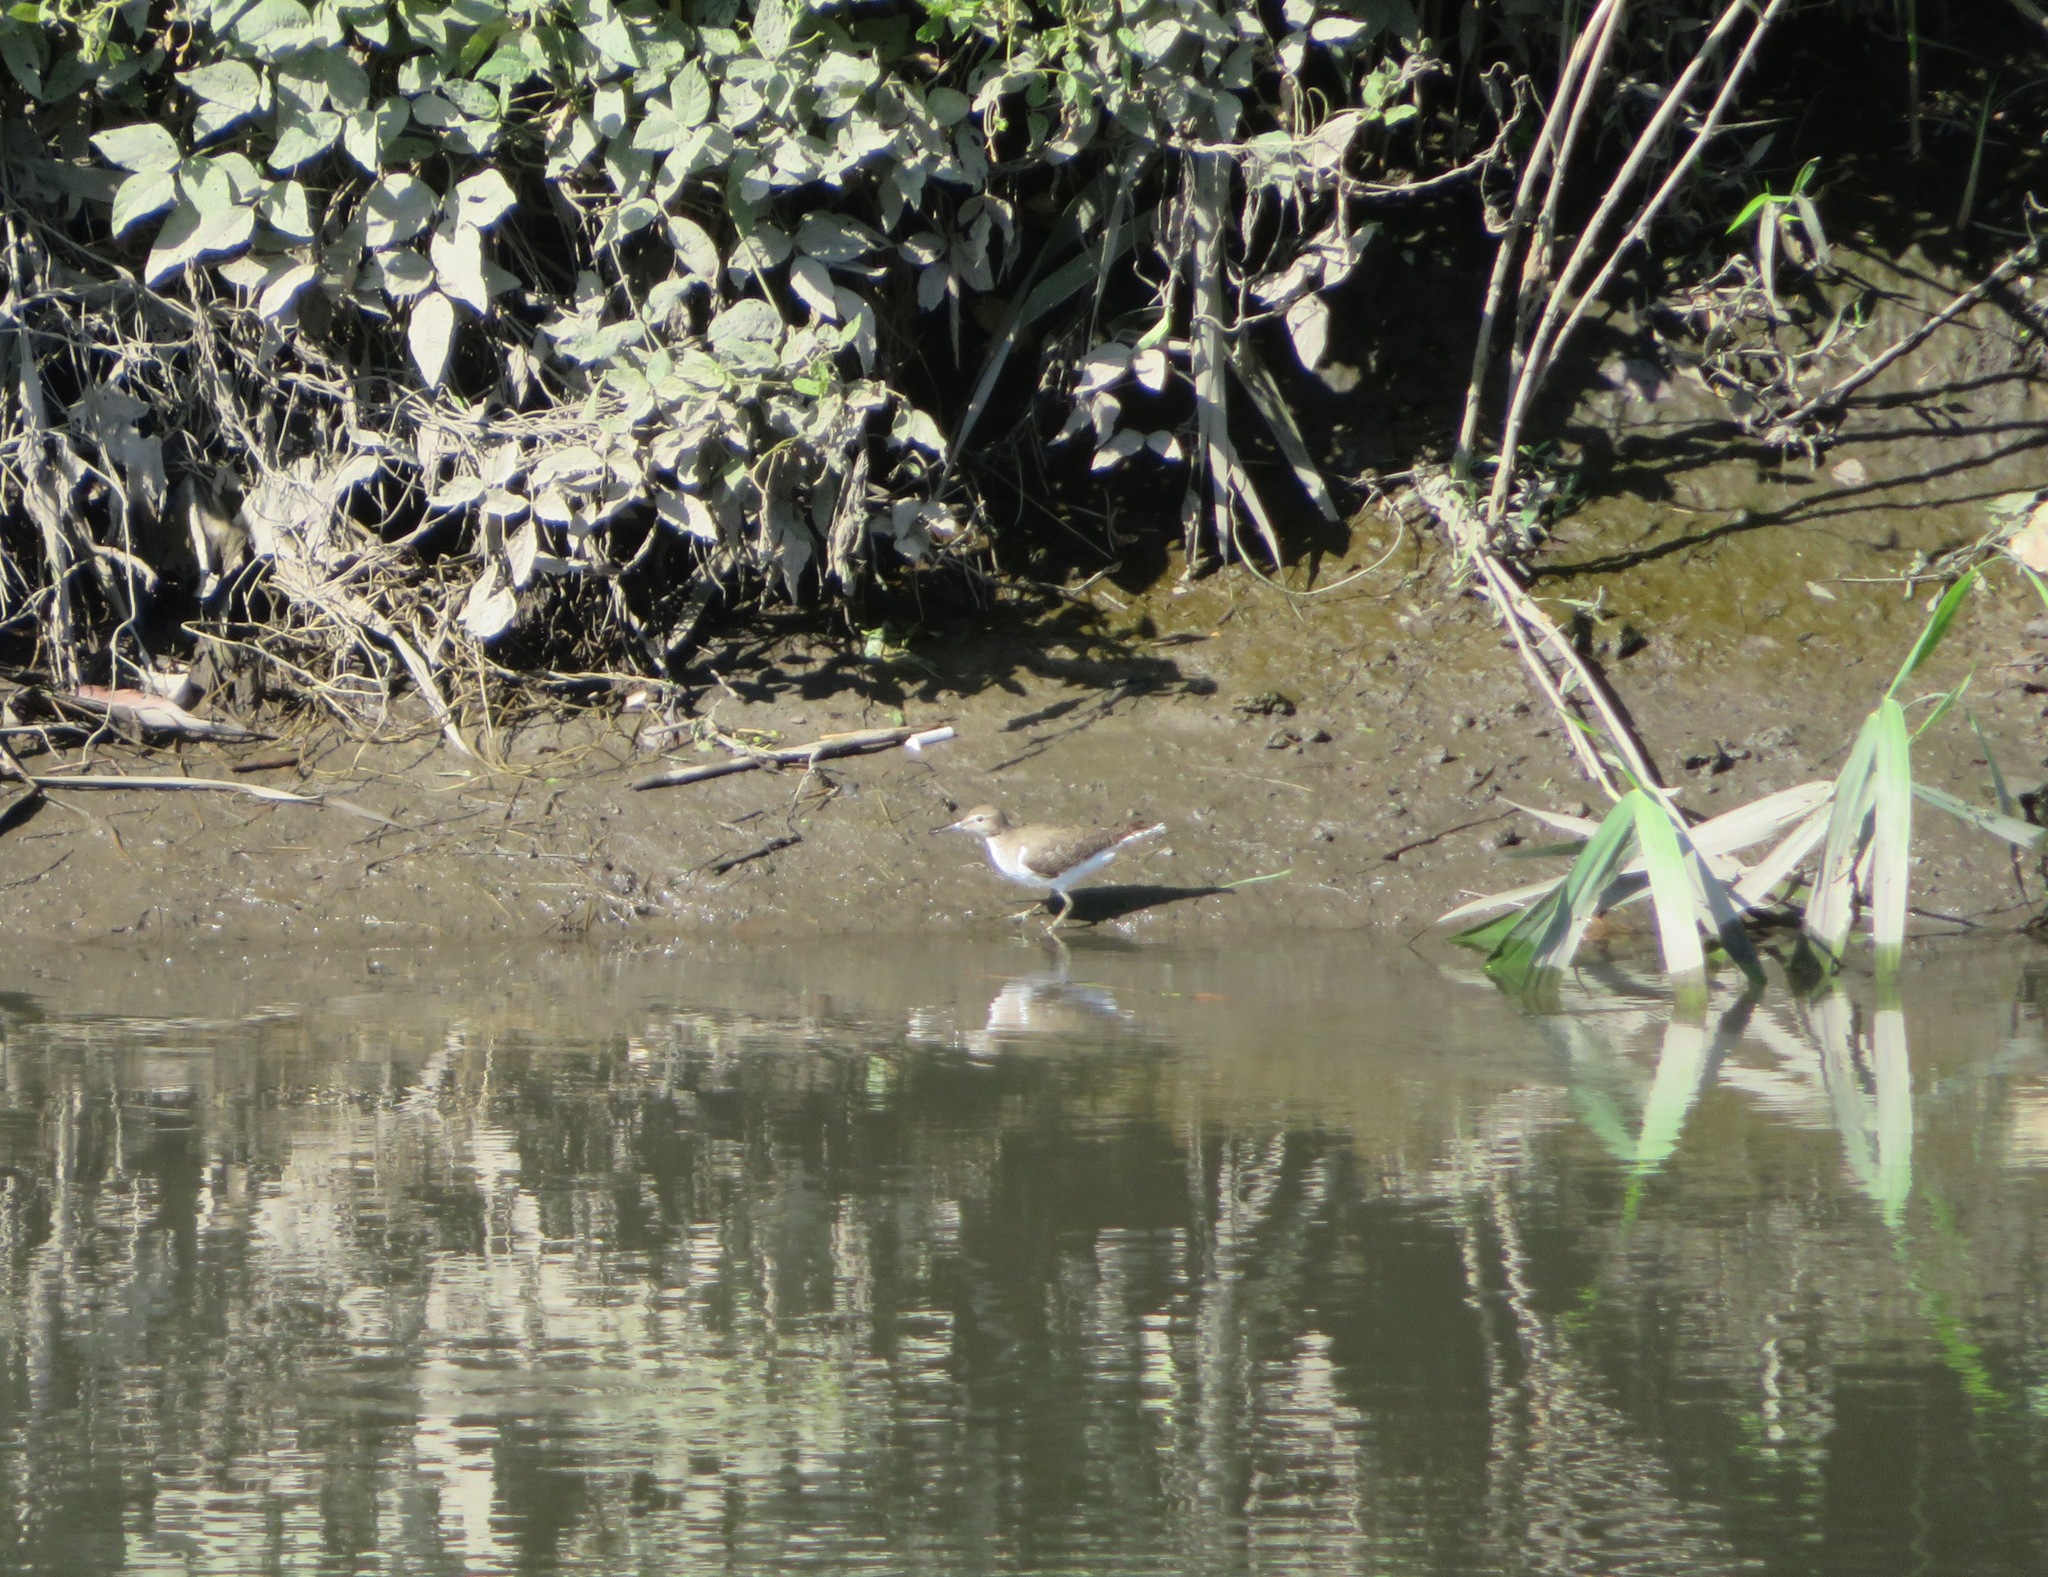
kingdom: Animalia
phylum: Chordata
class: Aves
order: Charadriiformes
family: Scolopacidae
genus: Actitis
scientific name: Actitis hypoleucos
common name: Common sandpiper
